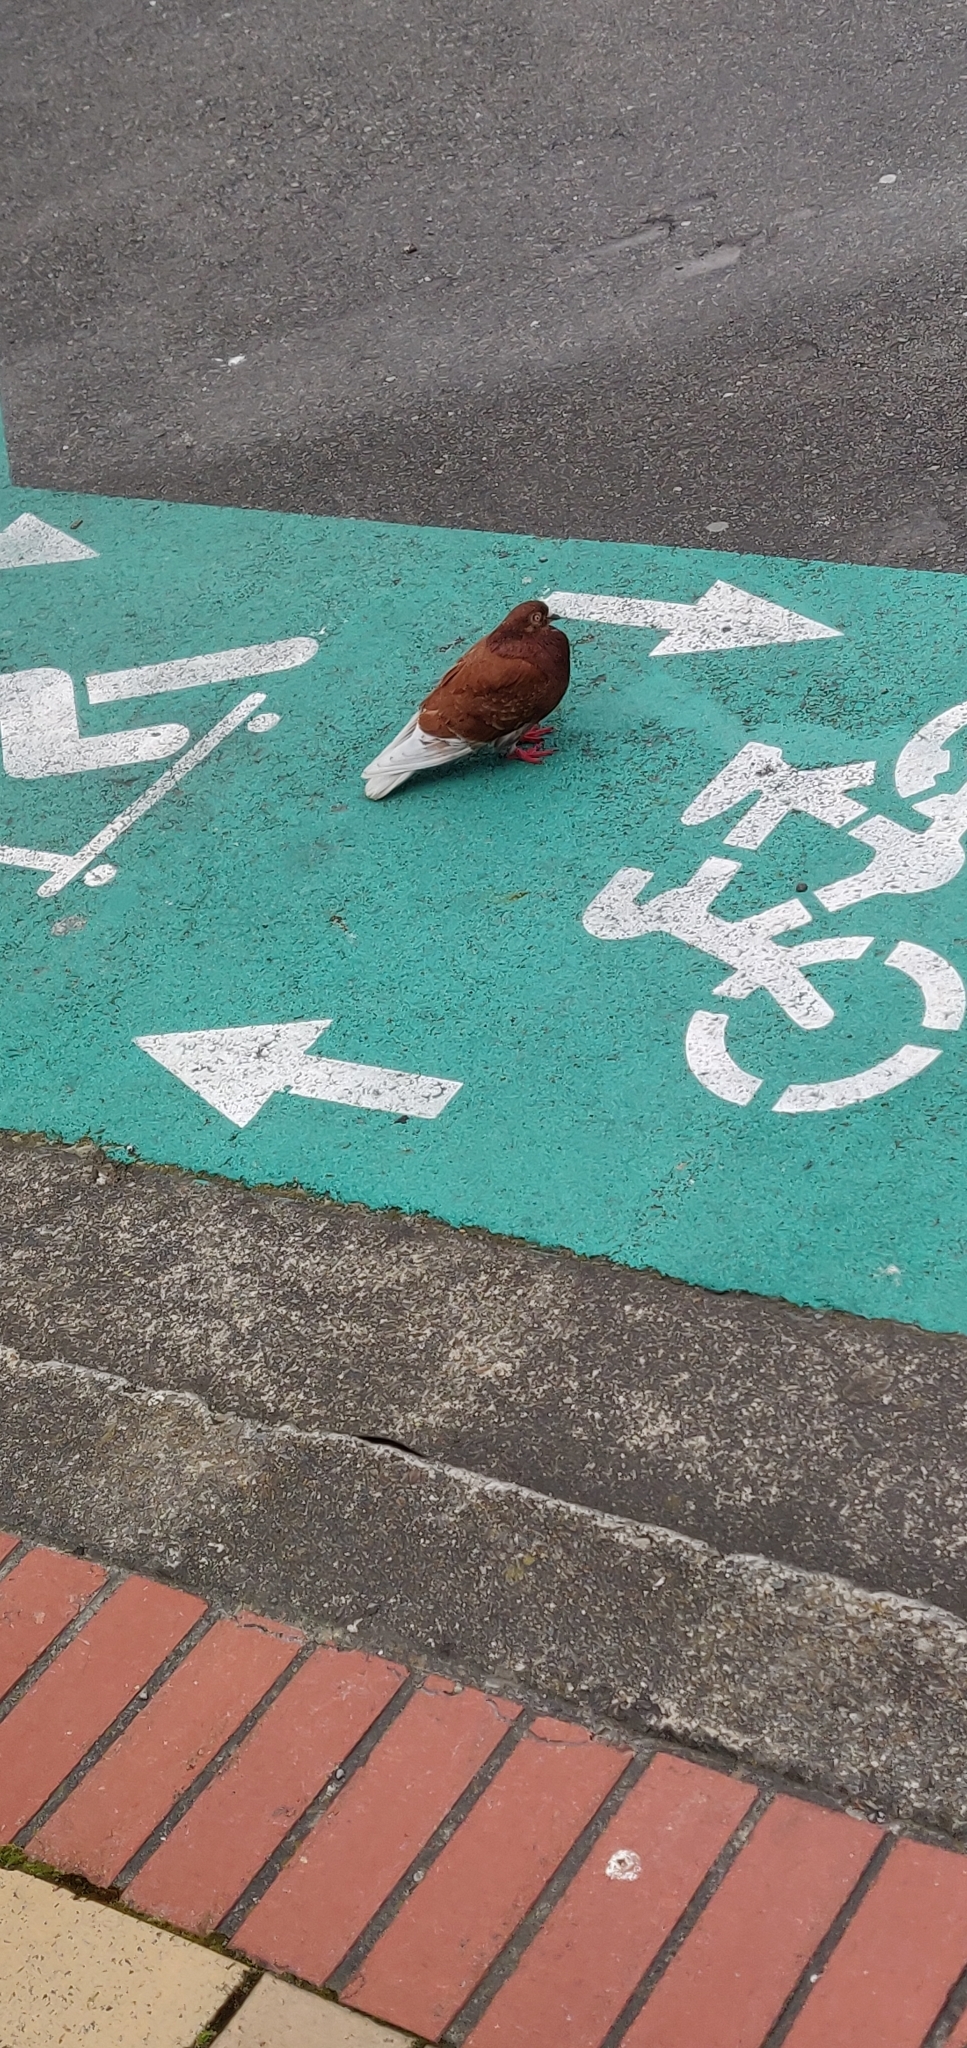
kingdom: Animalia
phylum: Chordata
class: Aves
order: Columbiformes
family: Columbidae
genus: Columba
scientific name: Columba livia
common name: Rock pigeon
